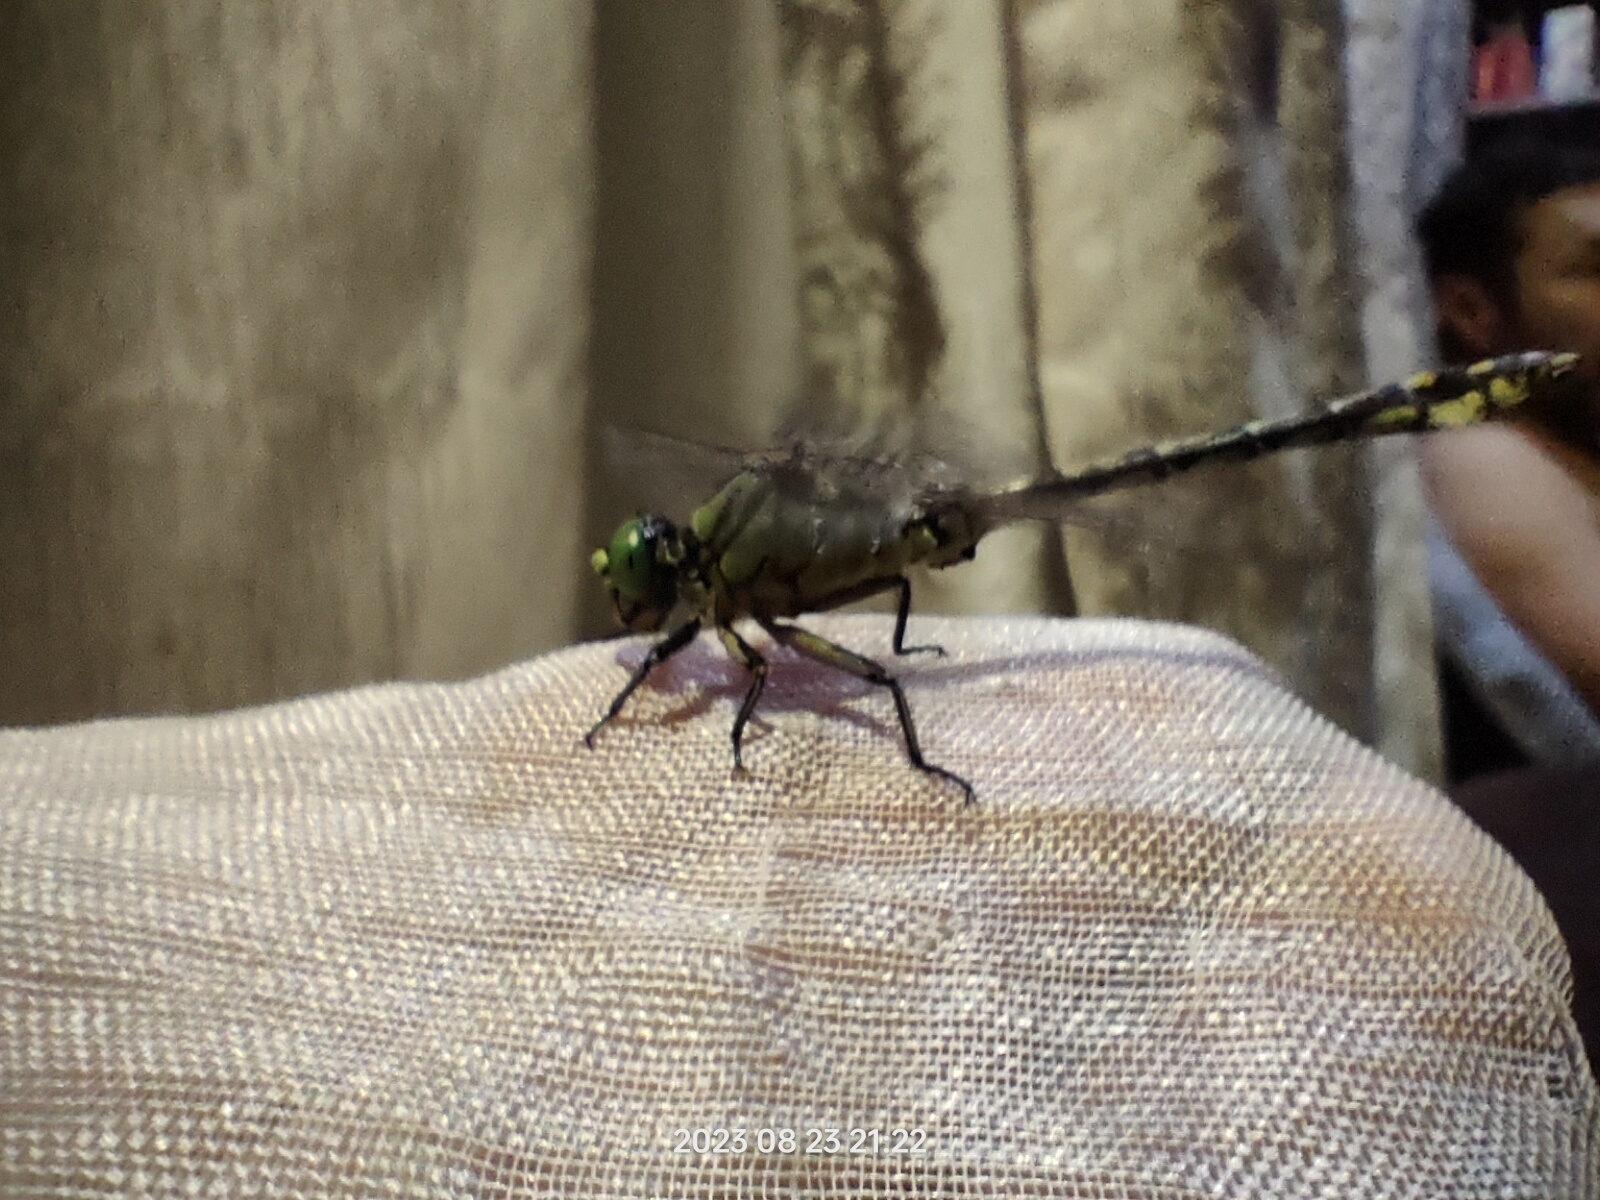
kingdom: Animalia
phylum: Arthropoda
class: Insecta
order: Odonata
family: Gomphidae
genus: Ophiogomphus
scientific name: Ophiogomphus cecilia
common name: Green snaketail
